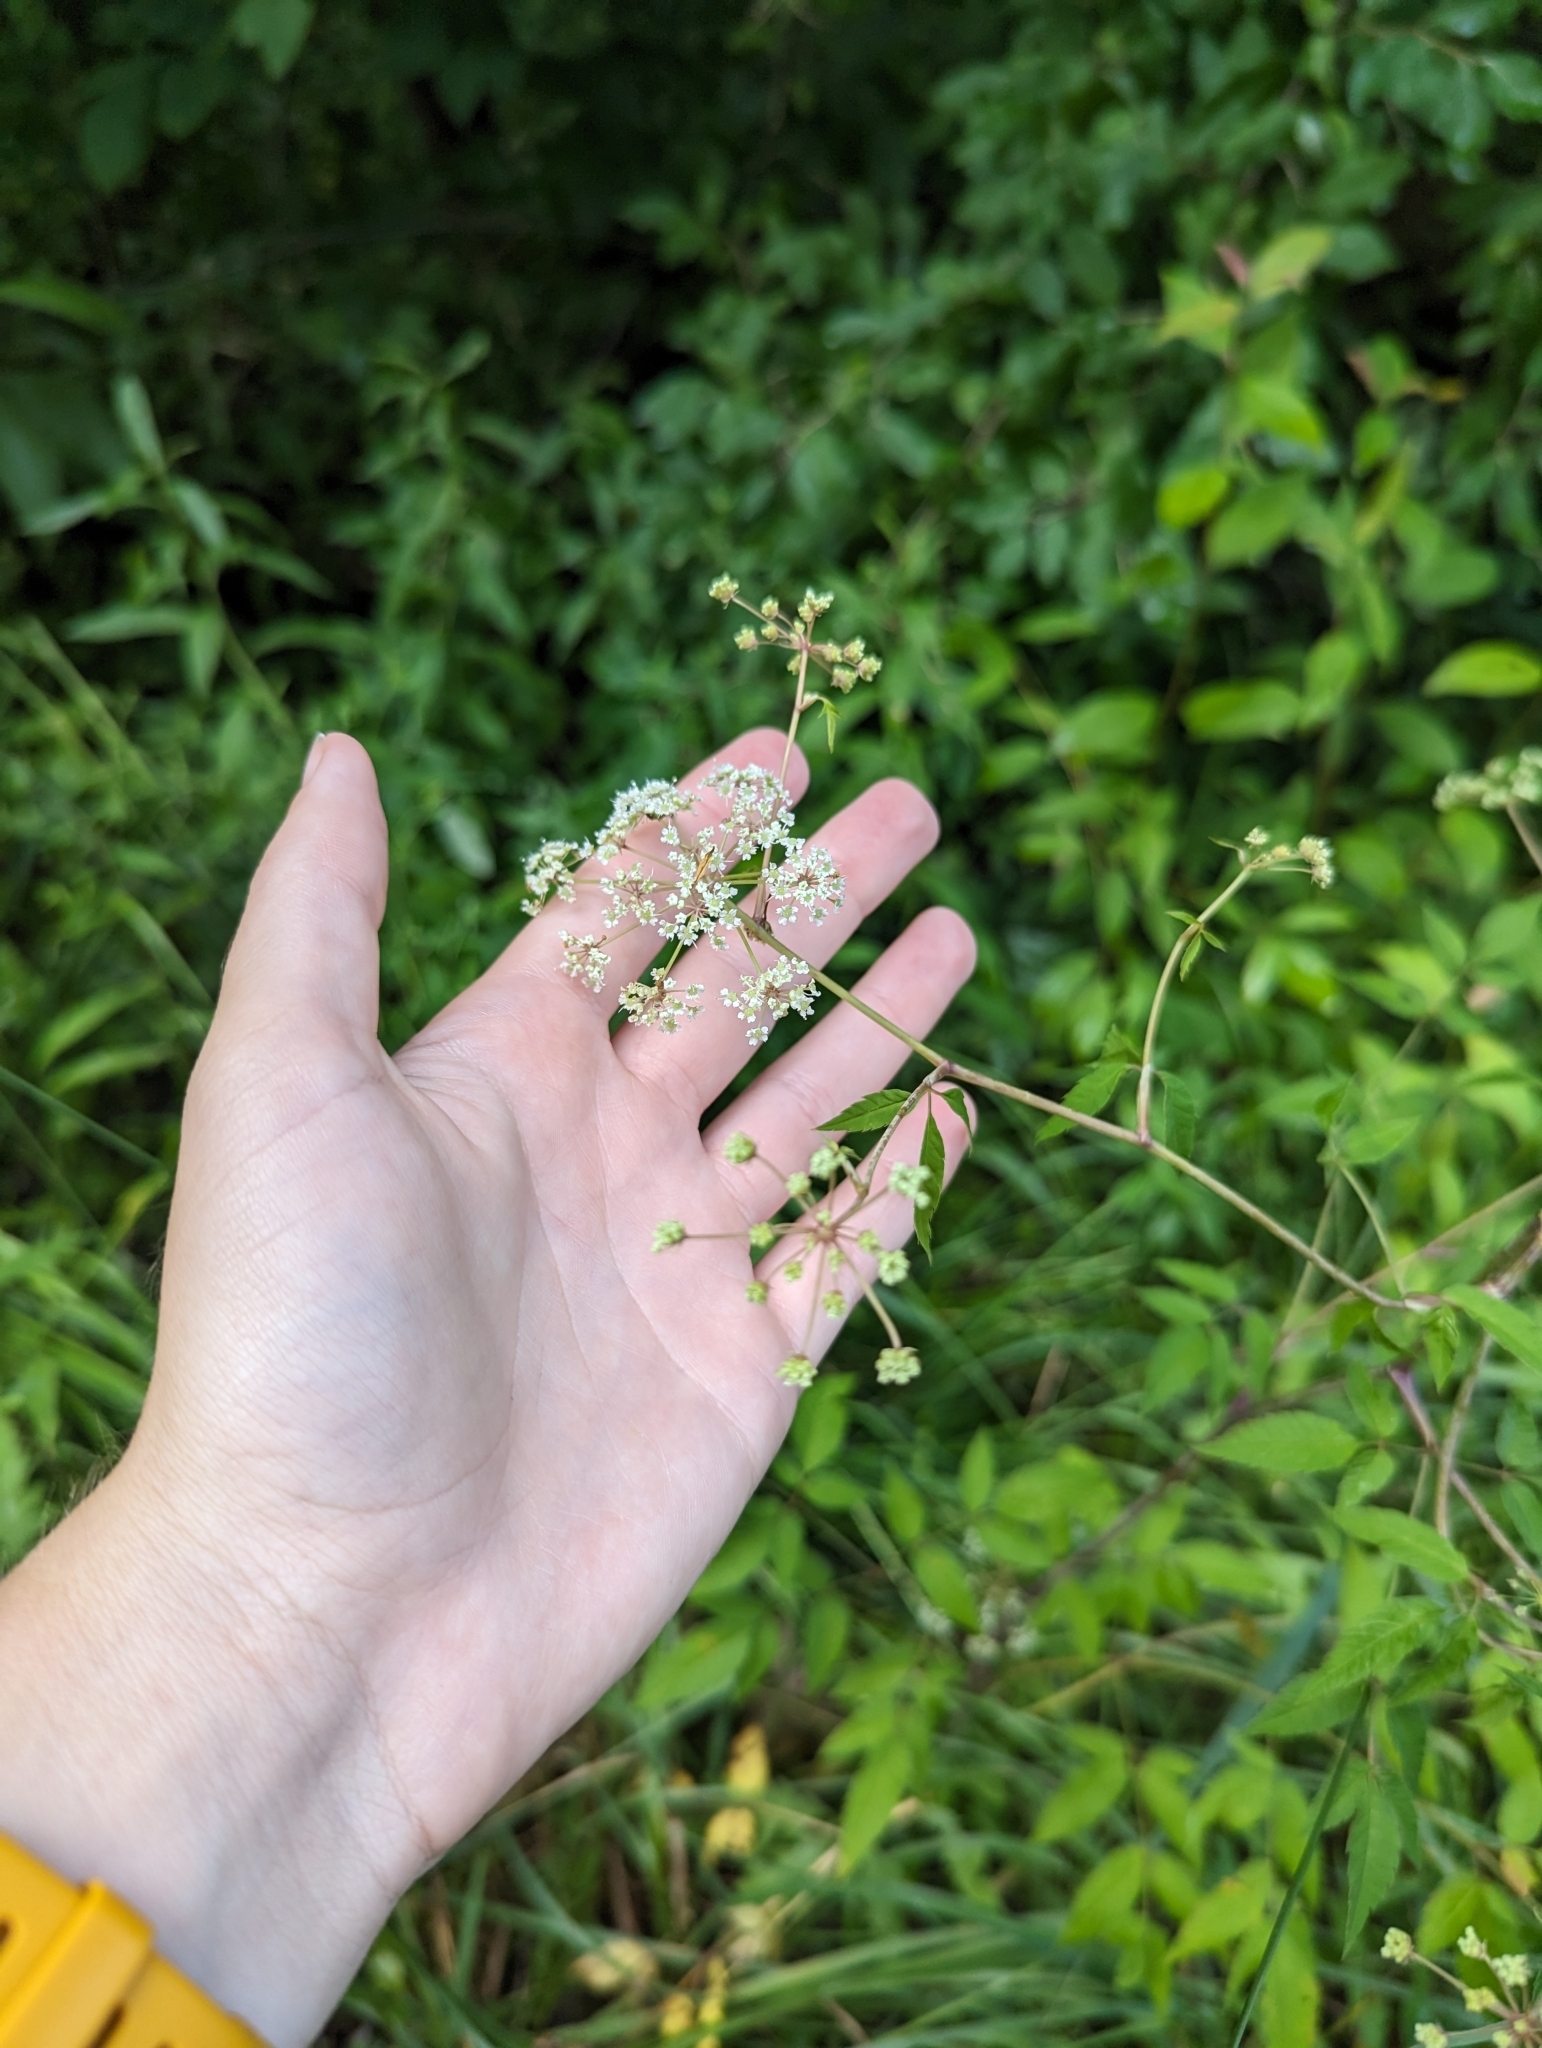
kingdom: Plantae
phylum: Tracheophyta
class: Magnoliopsida
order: Apiales
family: Apiaceae
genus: Cicuta
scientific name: Cicuta maculata
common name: Spotted cowbane
